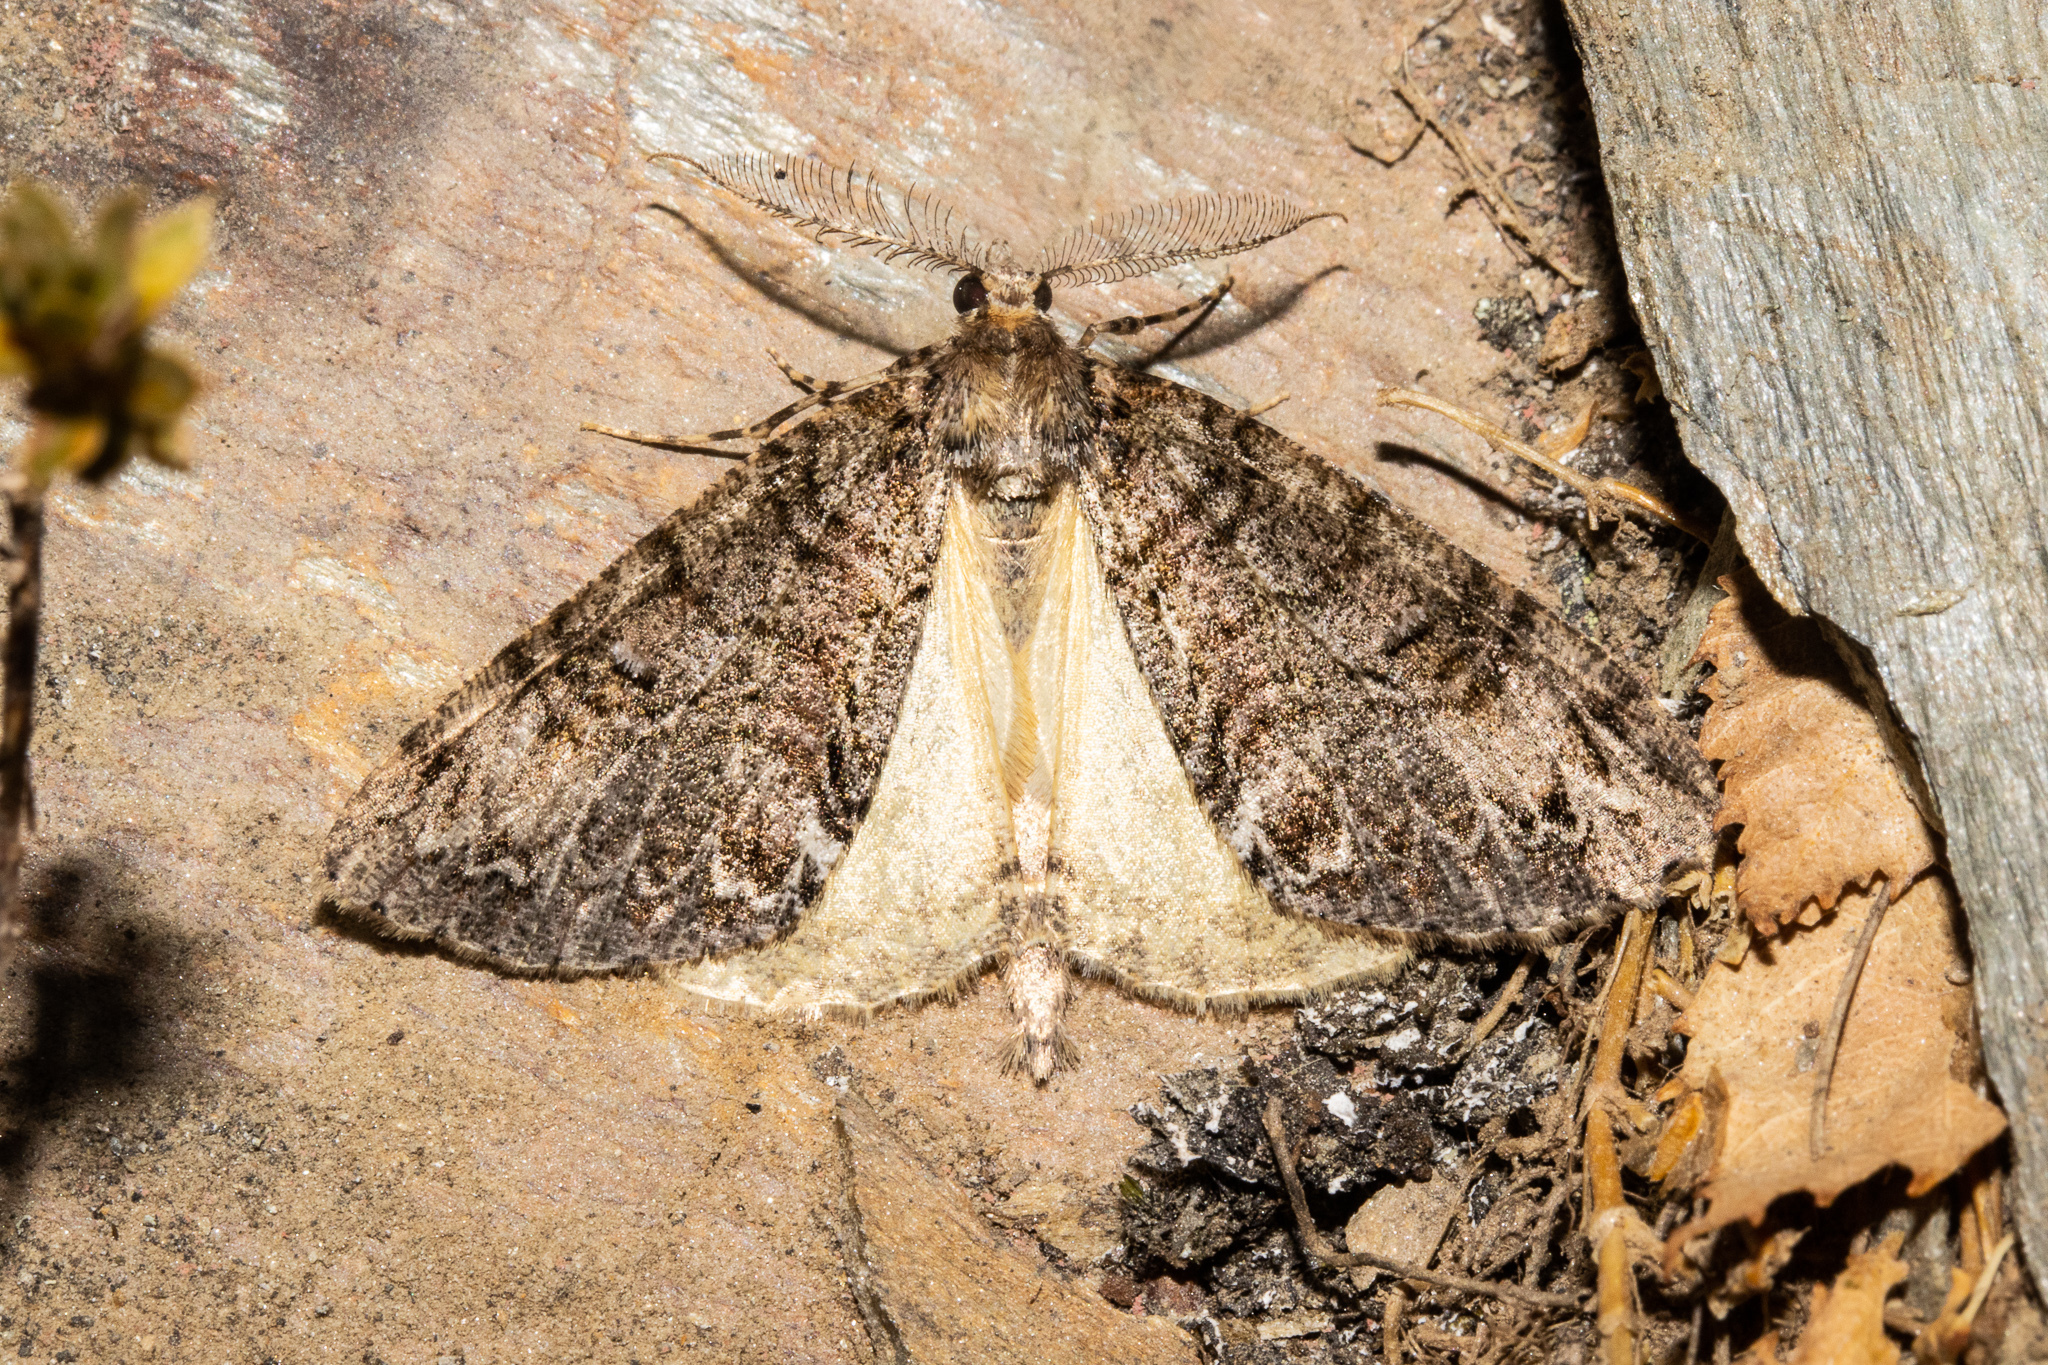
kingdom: Animalia
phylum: Arthropoda
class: Insecta
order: Lepidoptera
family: Geometridae
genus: Pseudocoremia
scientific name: Pseudocoremia suavis
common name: Common forest looper
